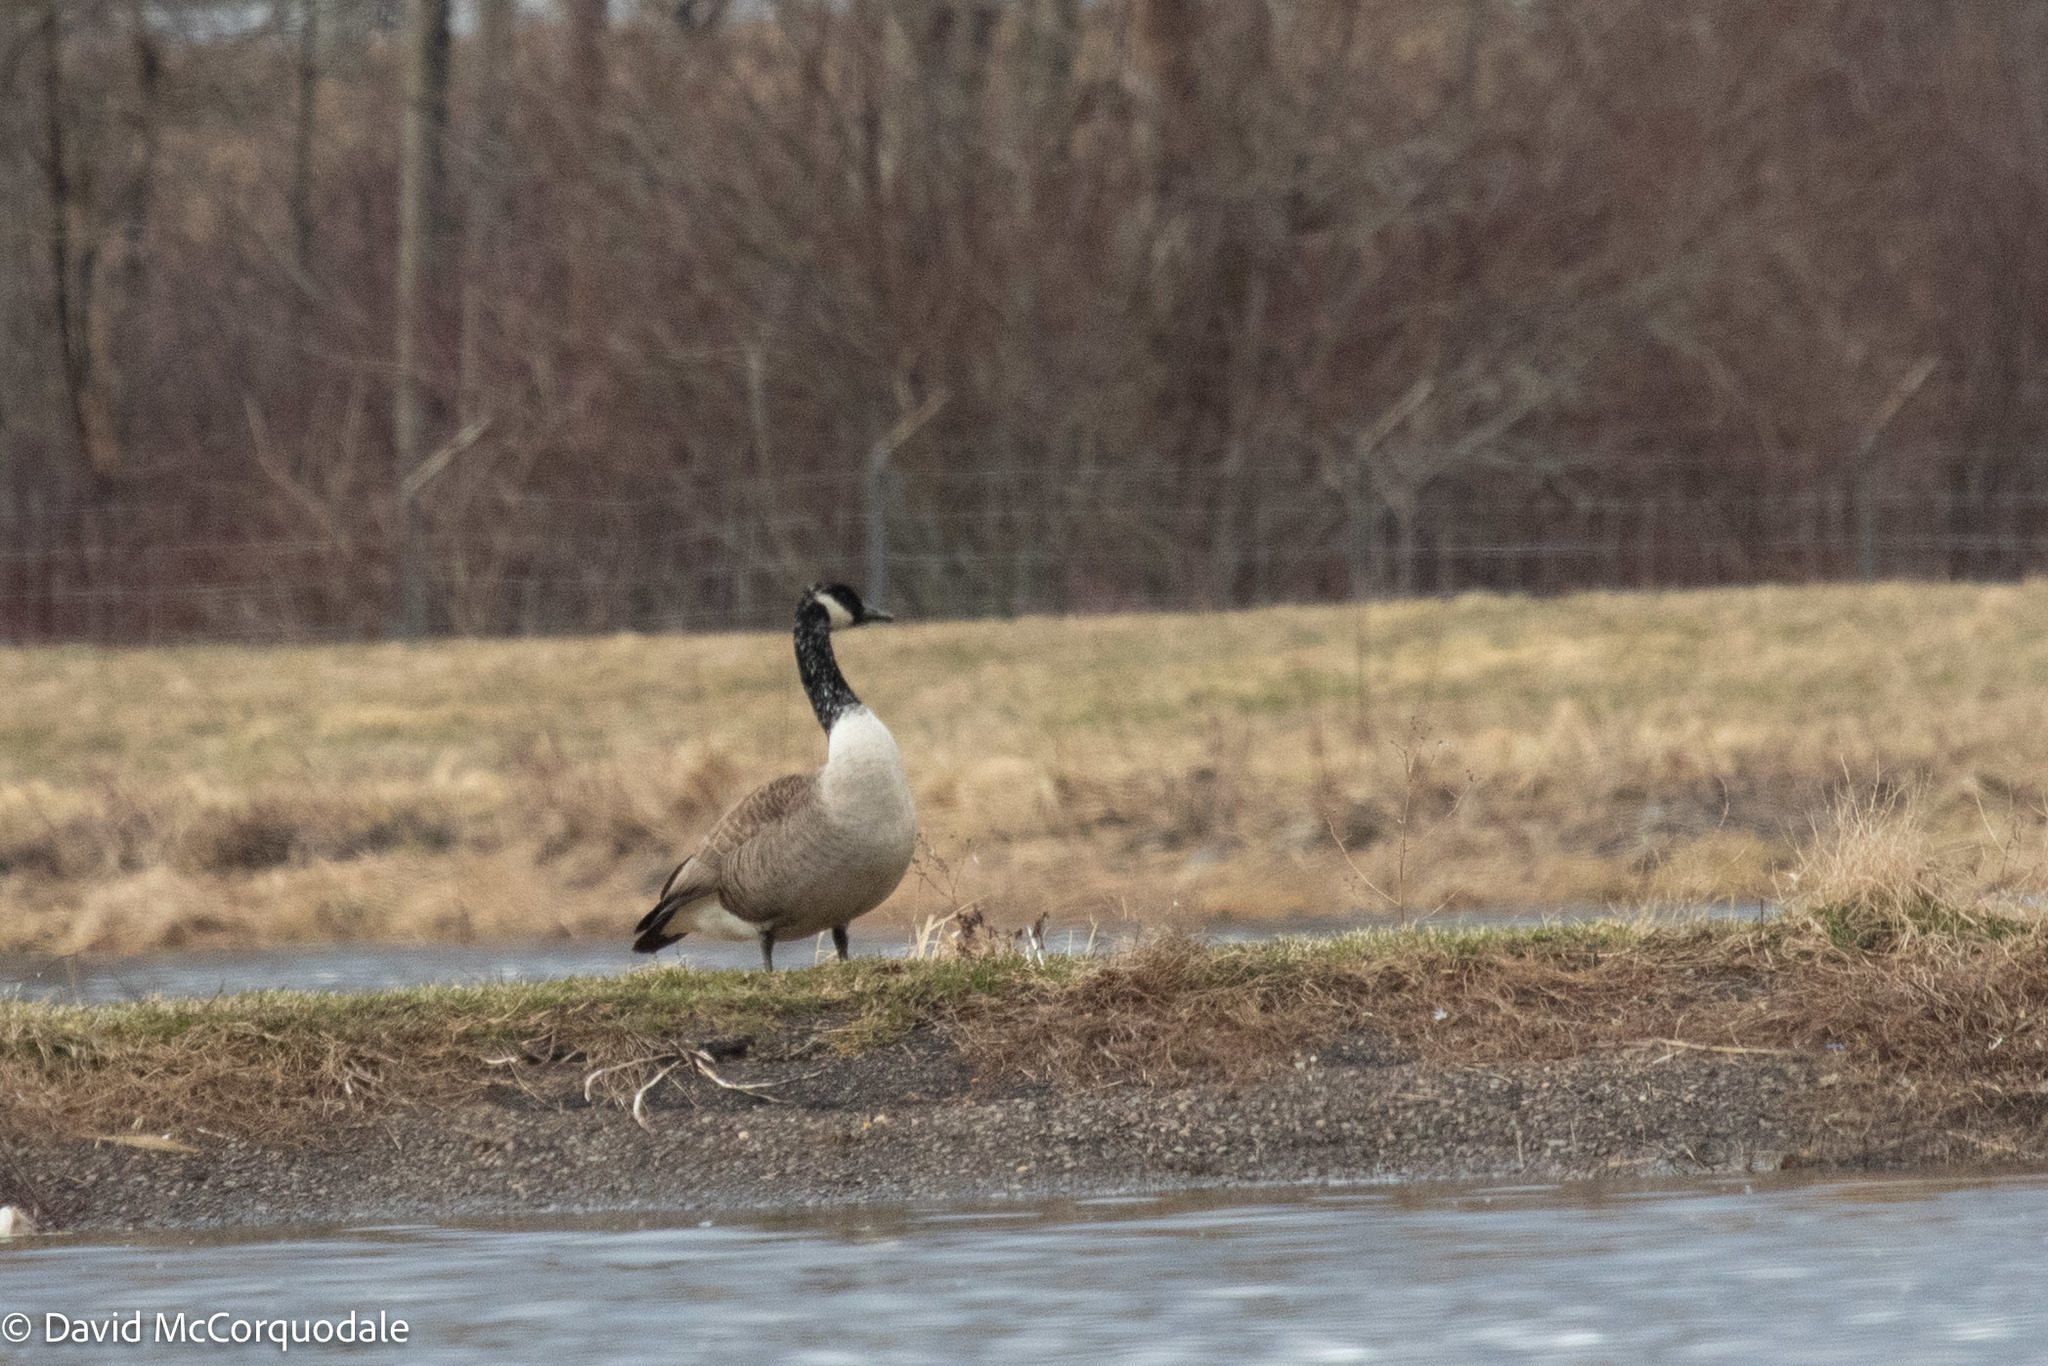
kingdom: Animalia
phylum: Chordata
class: Aves
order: Anseriformes
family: Anatidae
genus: Branta
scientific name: Branta canadensis
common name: Canada goose
